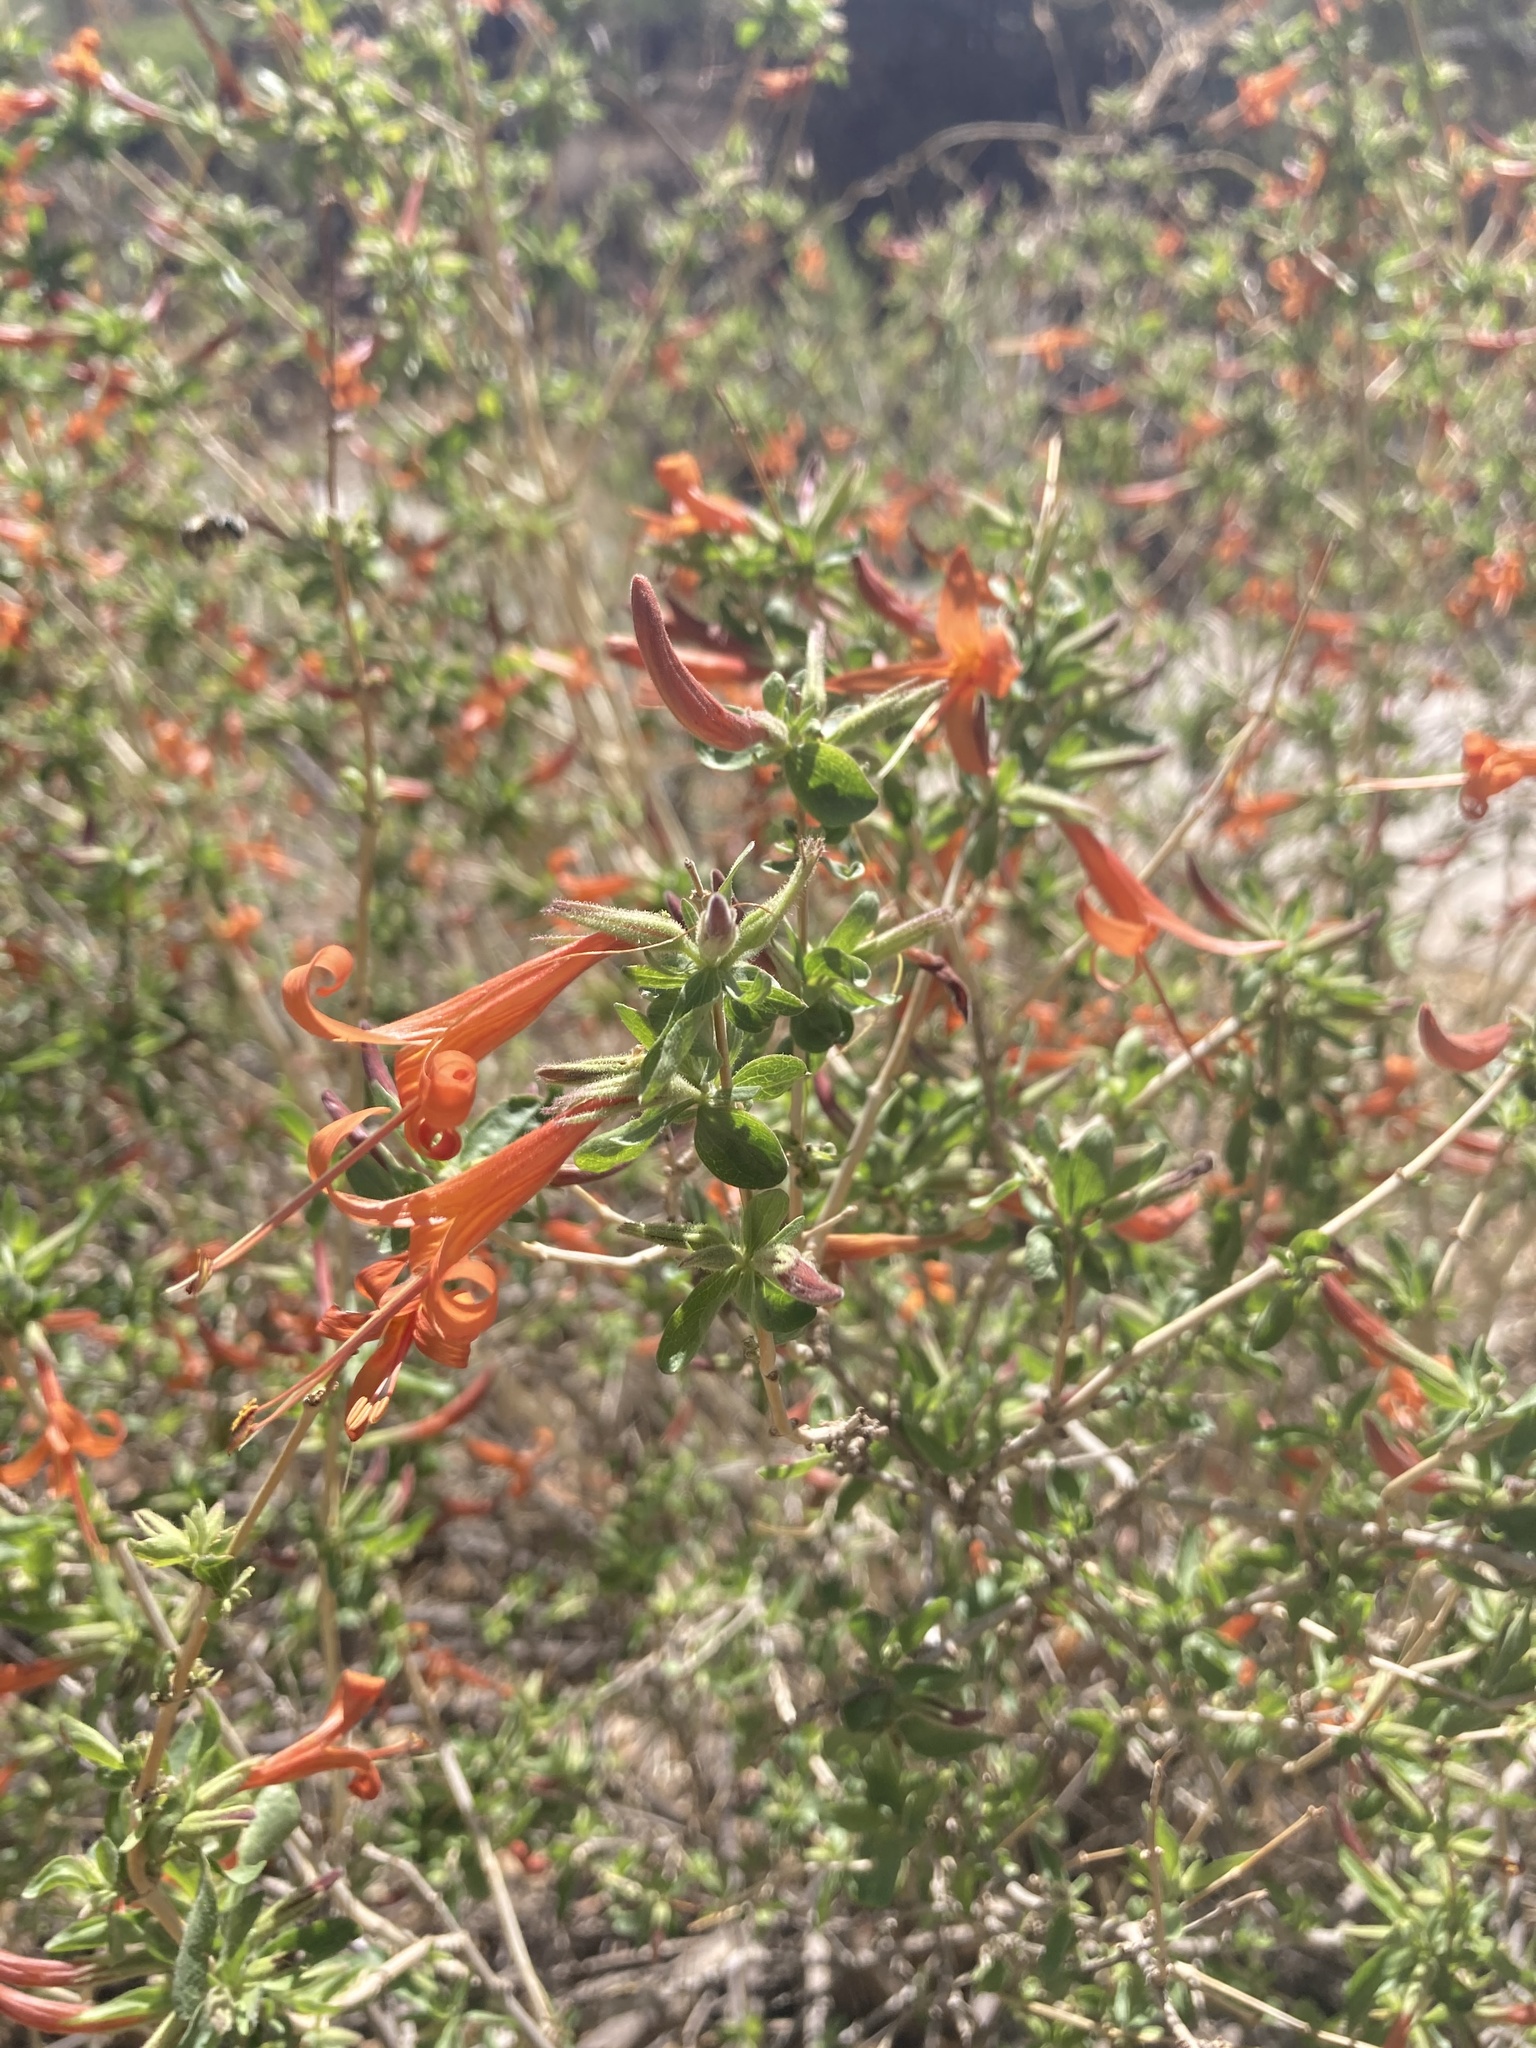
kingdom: Plantae
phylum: Tracheophyta
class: Magnoliopsida
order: Lamiales
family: Acanthaceae
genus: Anisacanthus
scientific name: Anisacanthus thurberi
